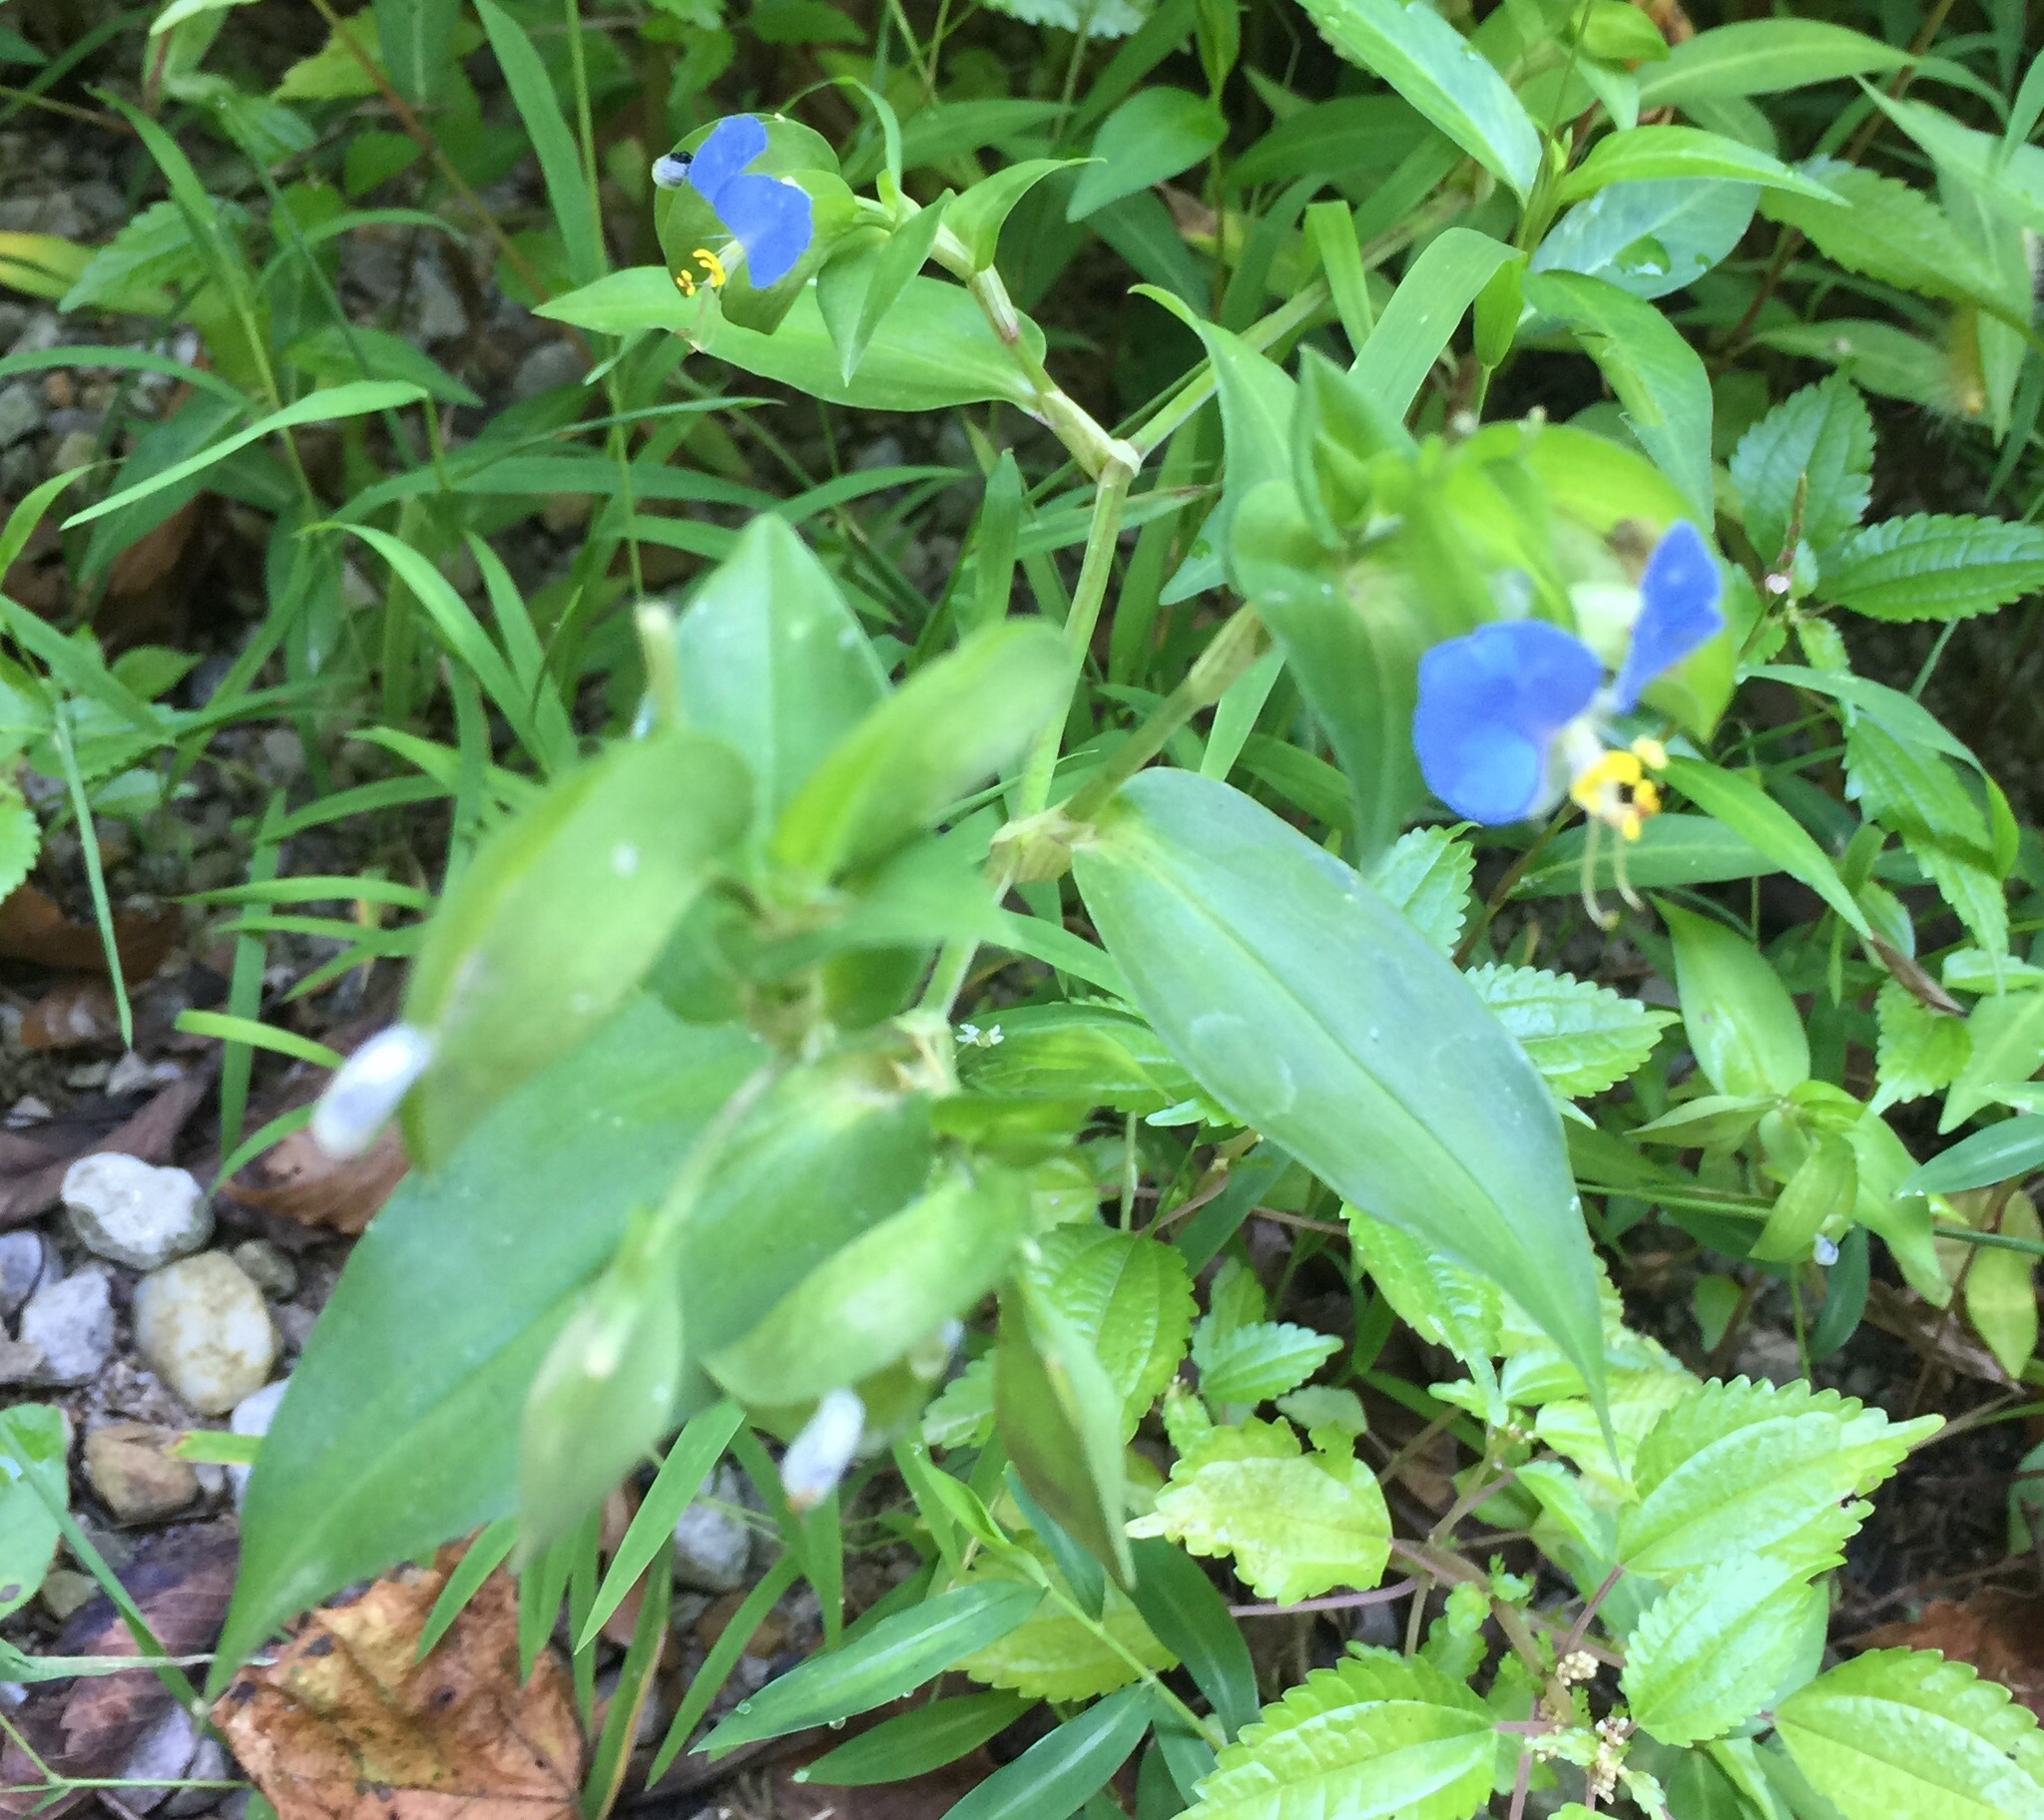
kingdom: Plantae
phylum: Tracheophyta
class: Liliopsida
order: Commelinales
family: Commelinaceae
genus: Commelina
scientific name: Commelina communis
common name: Asiatic dayflower
